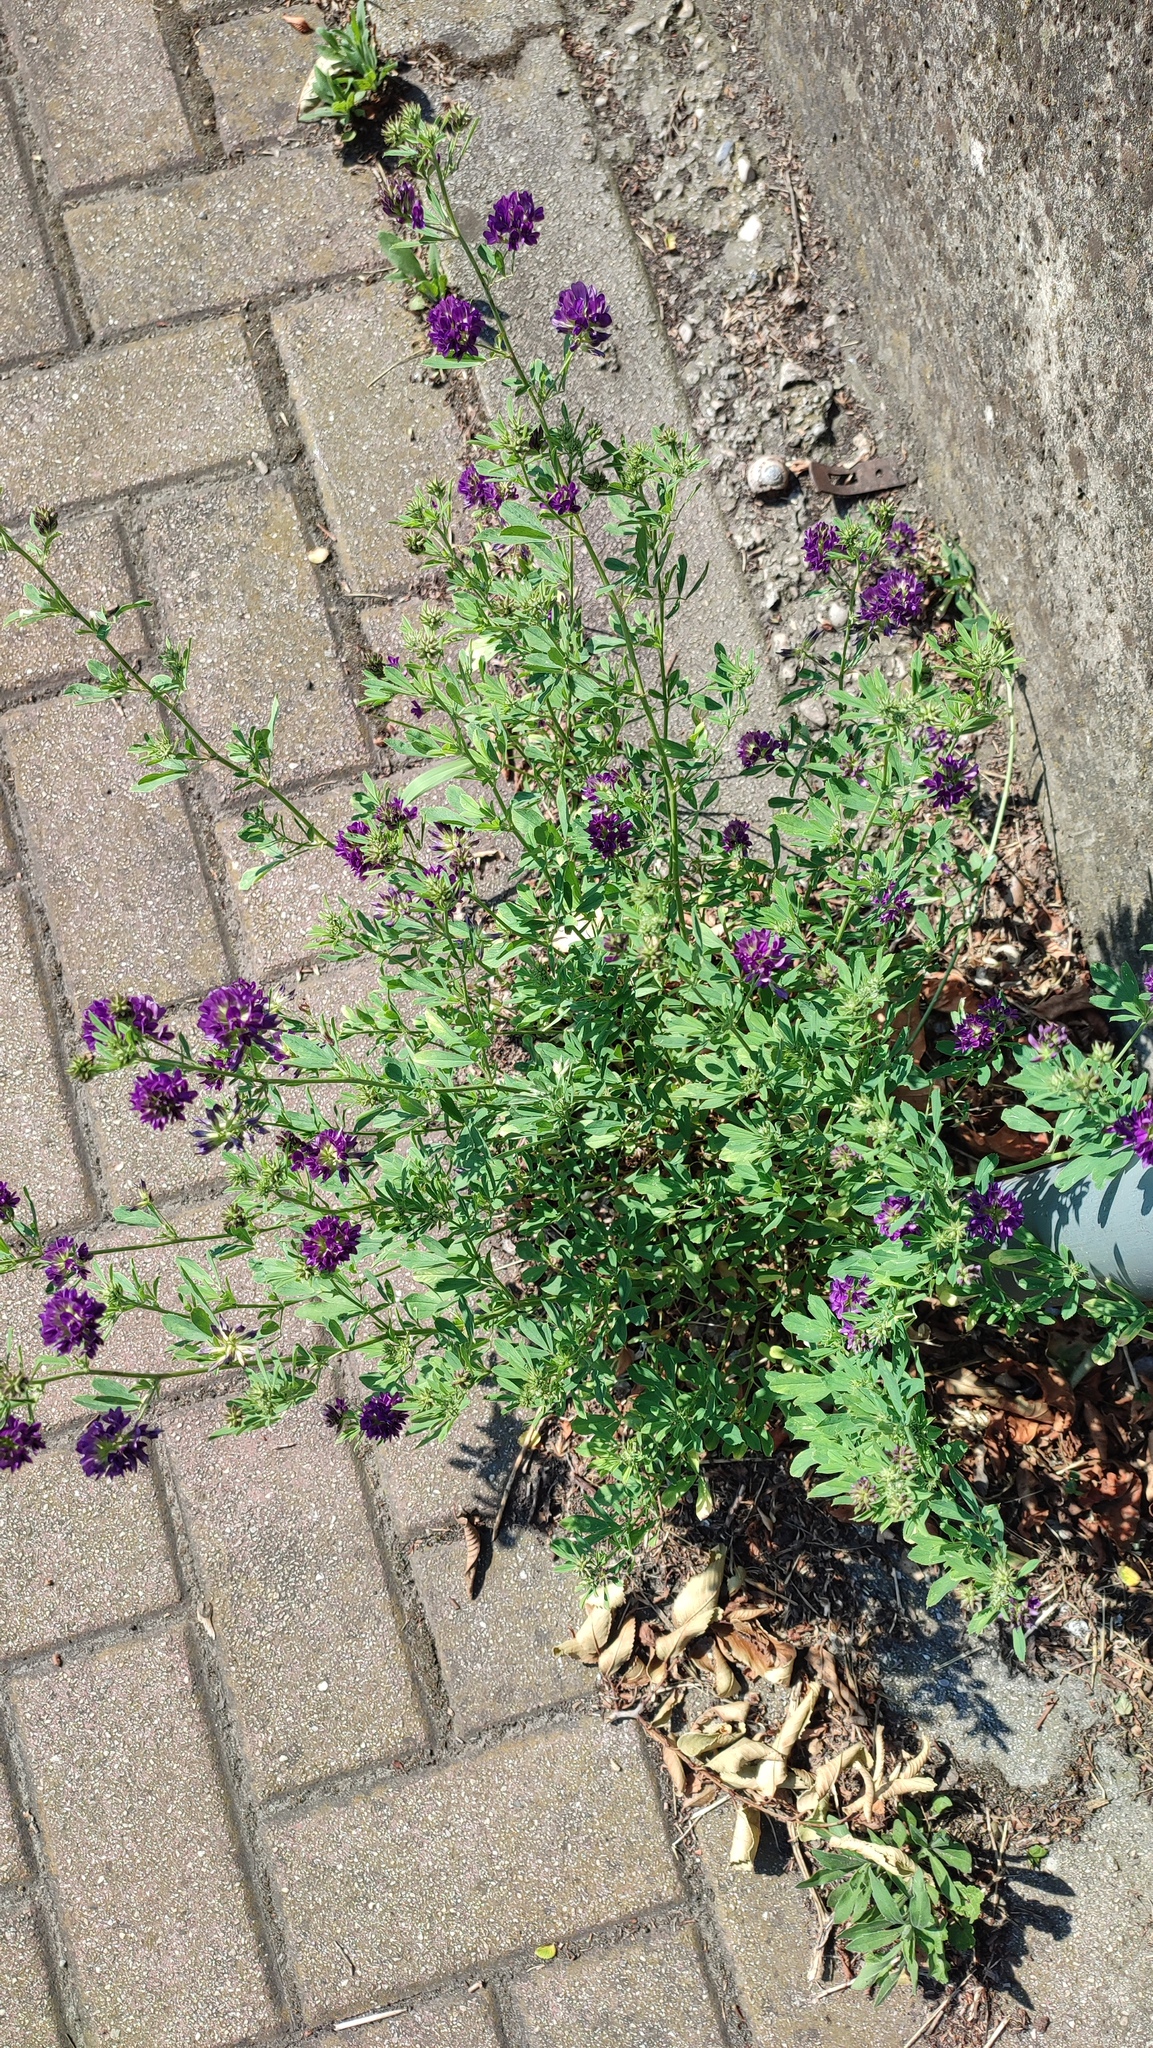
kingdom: Plantae
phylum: Tracheophyta
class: Magnoliopsida
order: Fabales
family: Fabaceae
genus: Medicago
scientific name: Medicago sativa
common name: Alfalfa
